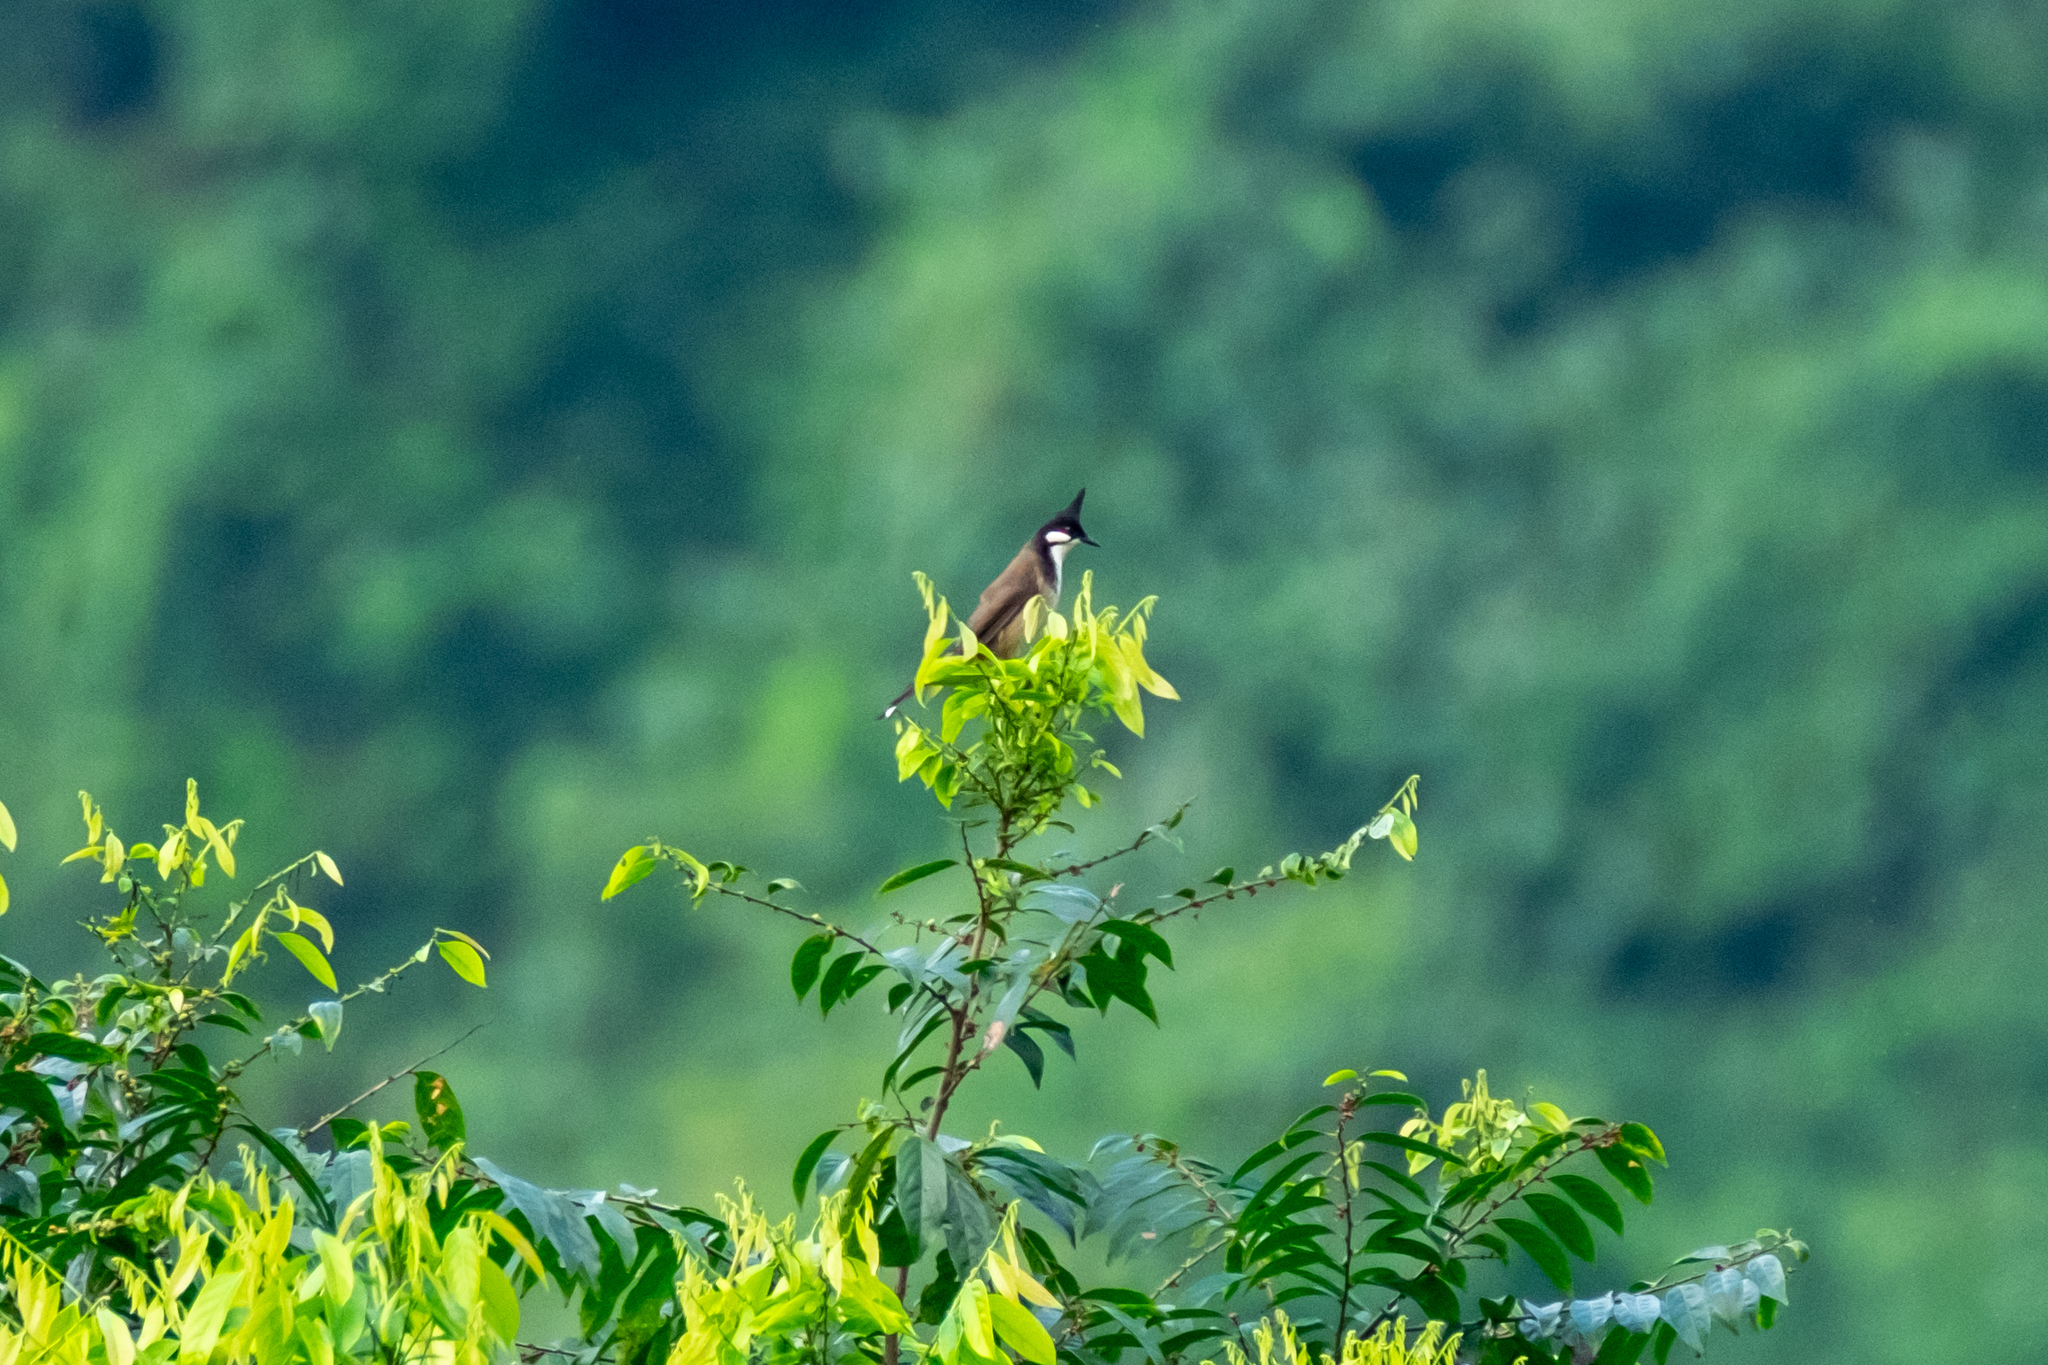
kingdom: Animalia
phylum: Chordata
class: Aves
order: Passeriformes
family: Pycnonotidae
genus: Pycnonotus
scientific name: Pycnonotus jocosus
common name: Red-whiskered bulbul
